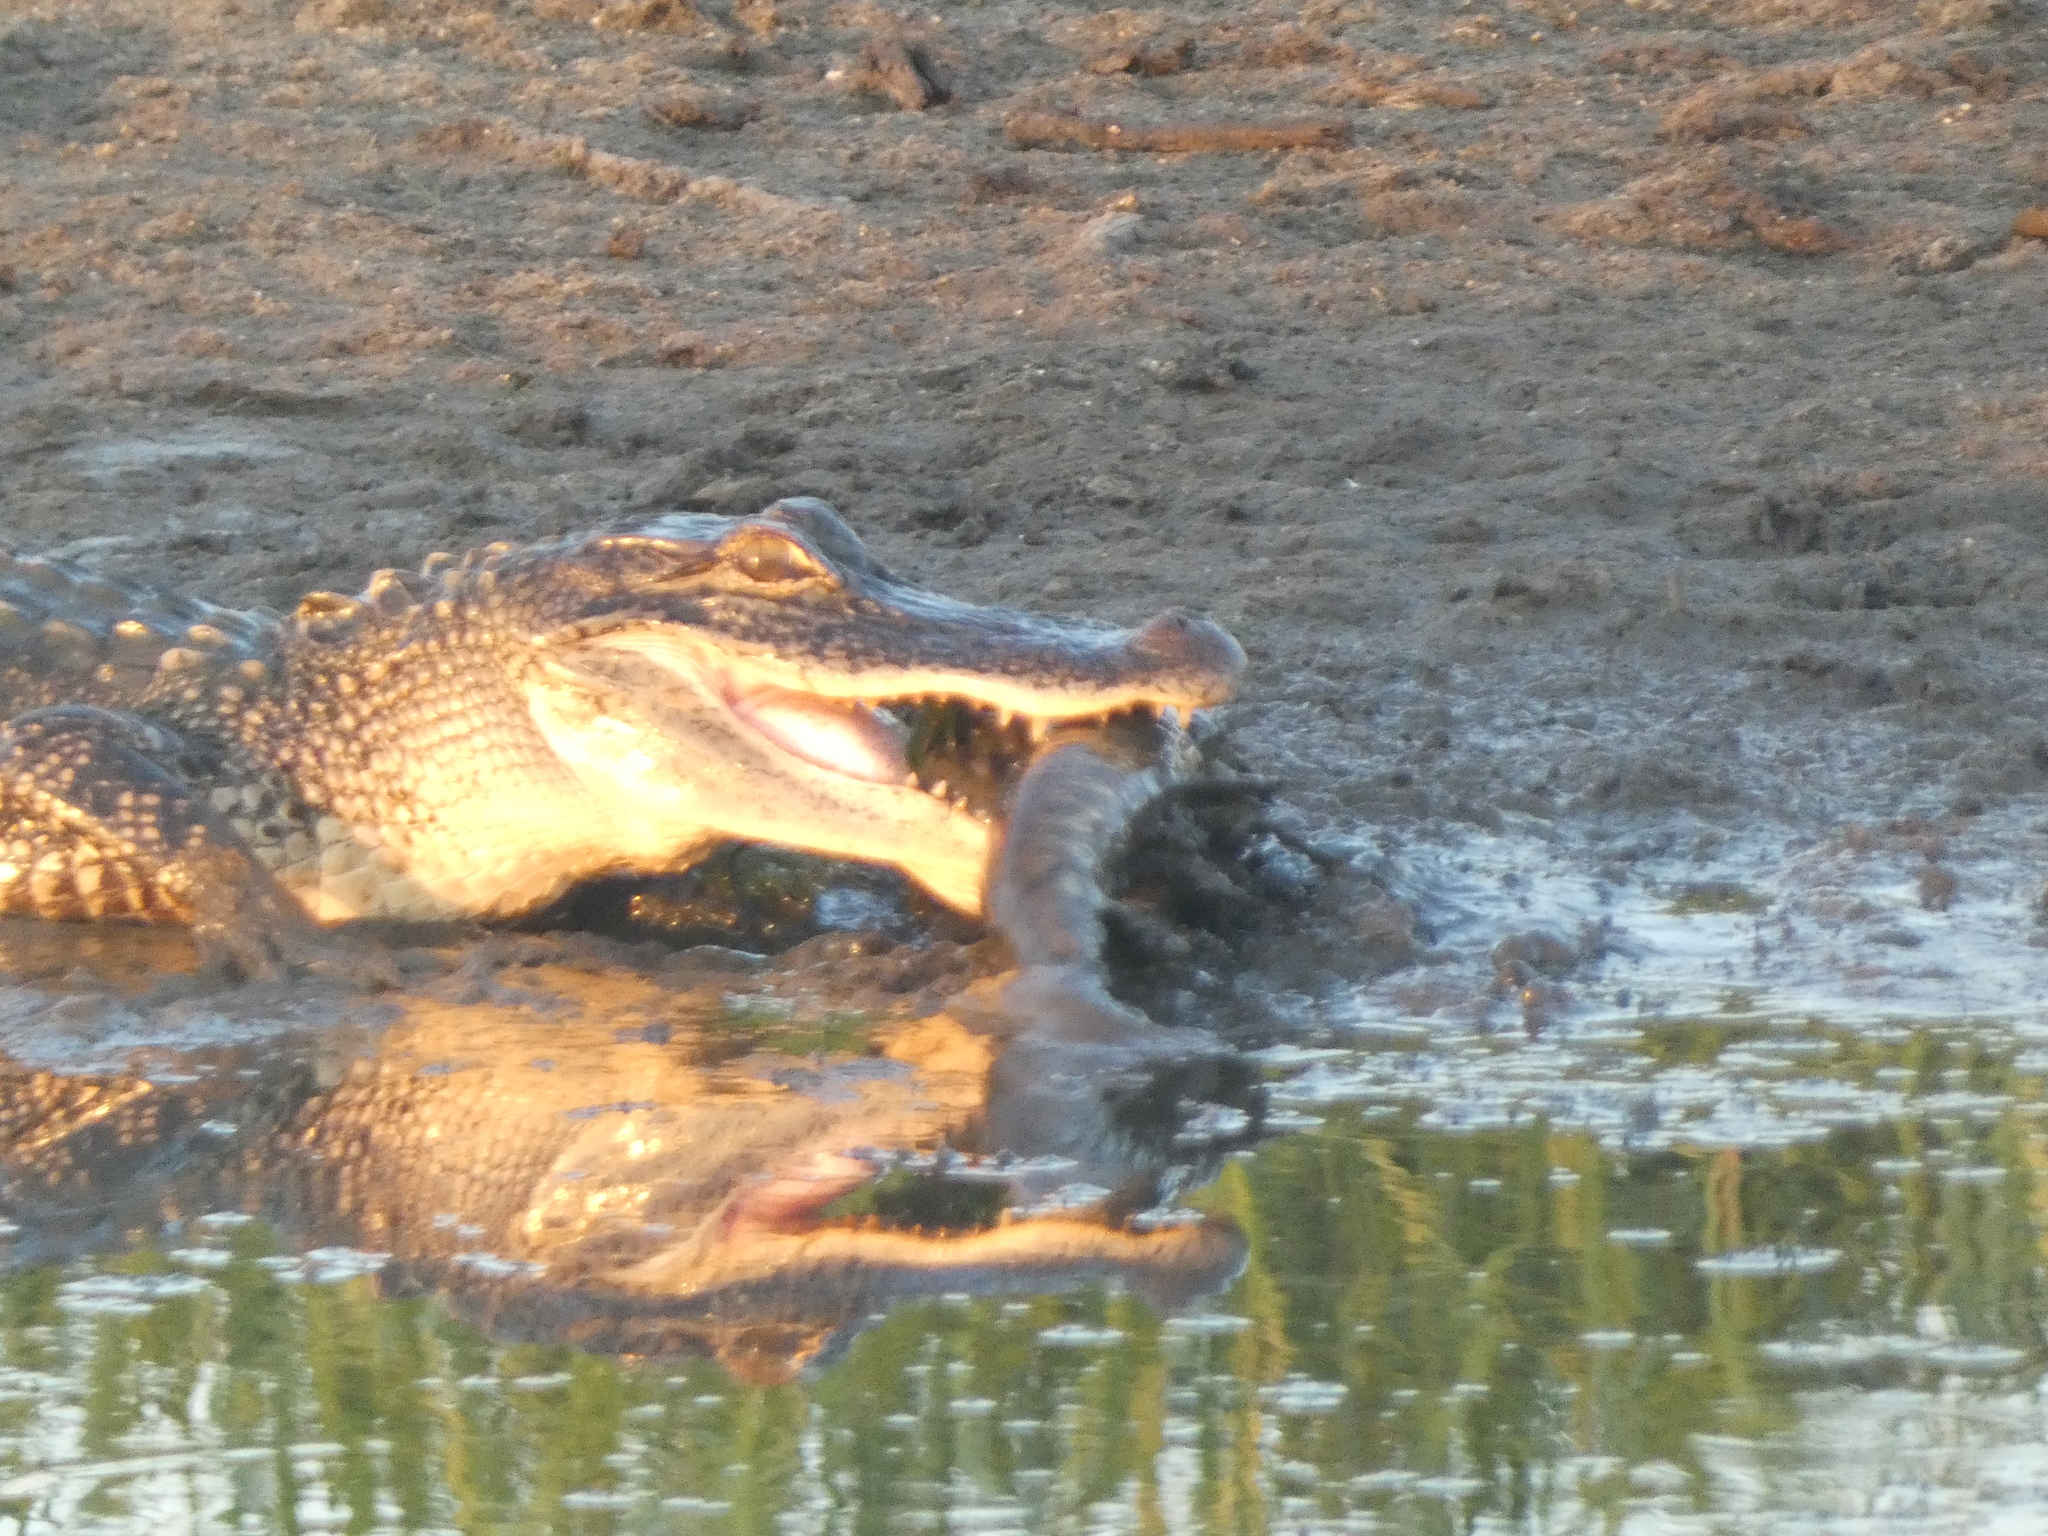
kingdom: Animalia
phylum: Chordata
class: Crocodylia
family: Alligatoridae
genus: Alligator
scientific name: Alligator mississippiensis
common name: American alligator
